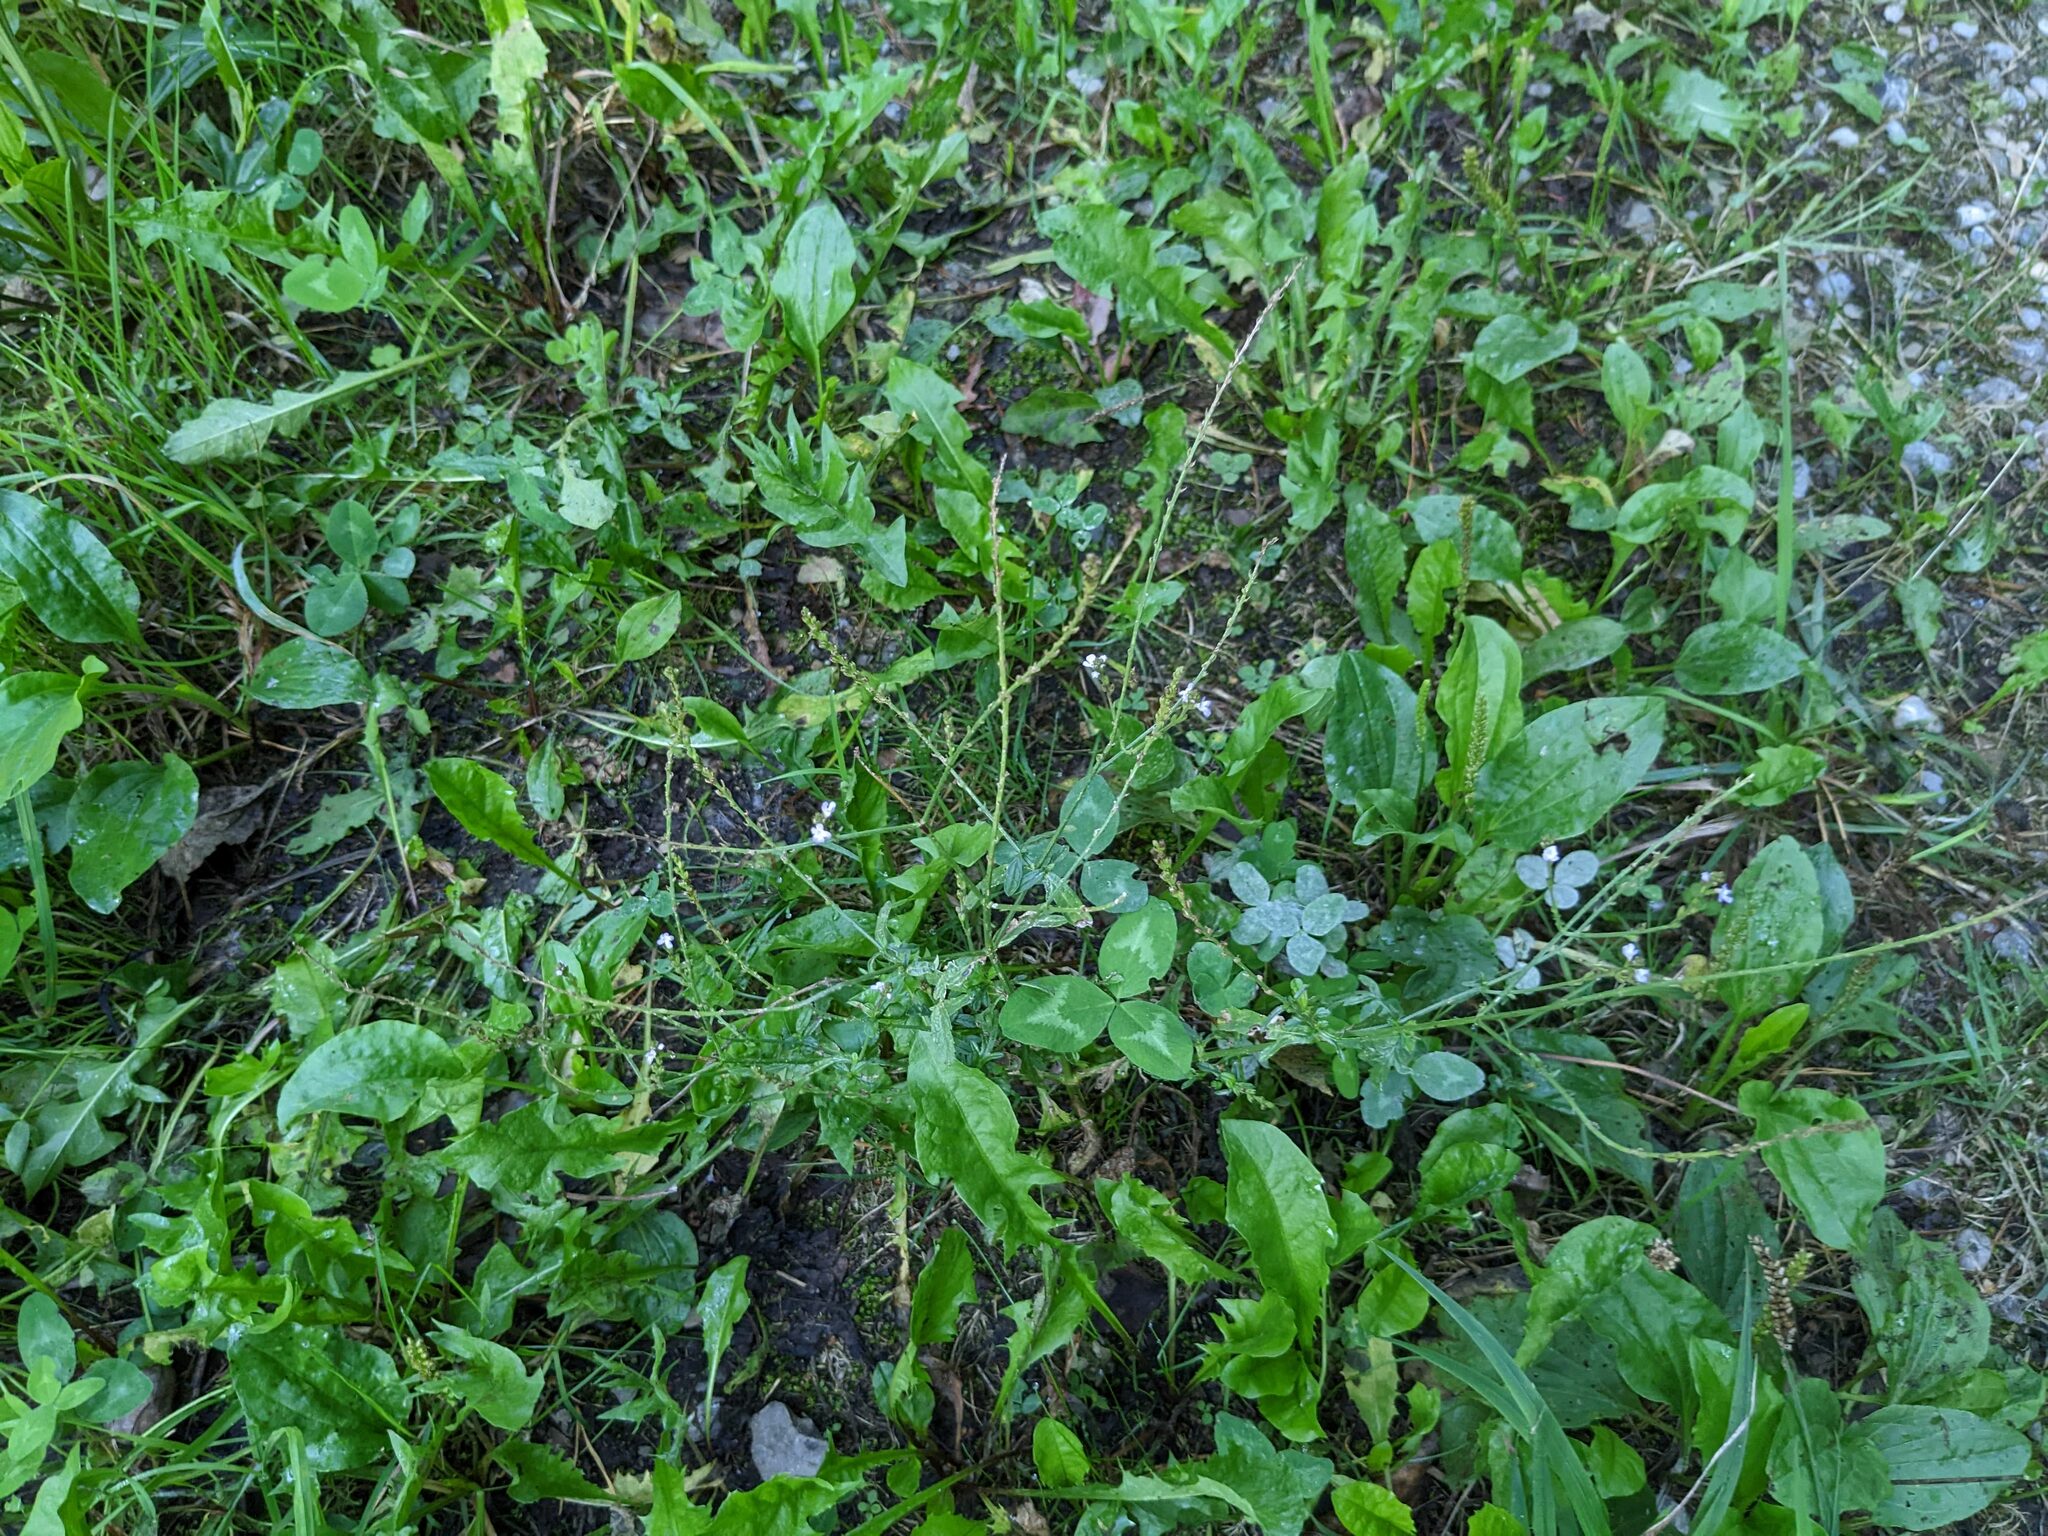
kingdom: Plantae
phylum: Tracheophyta
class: Magnoliopsida
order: Lamiales
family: Verbenaceae
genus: Verbena
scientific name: Verbena officinalis
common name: Vervain
